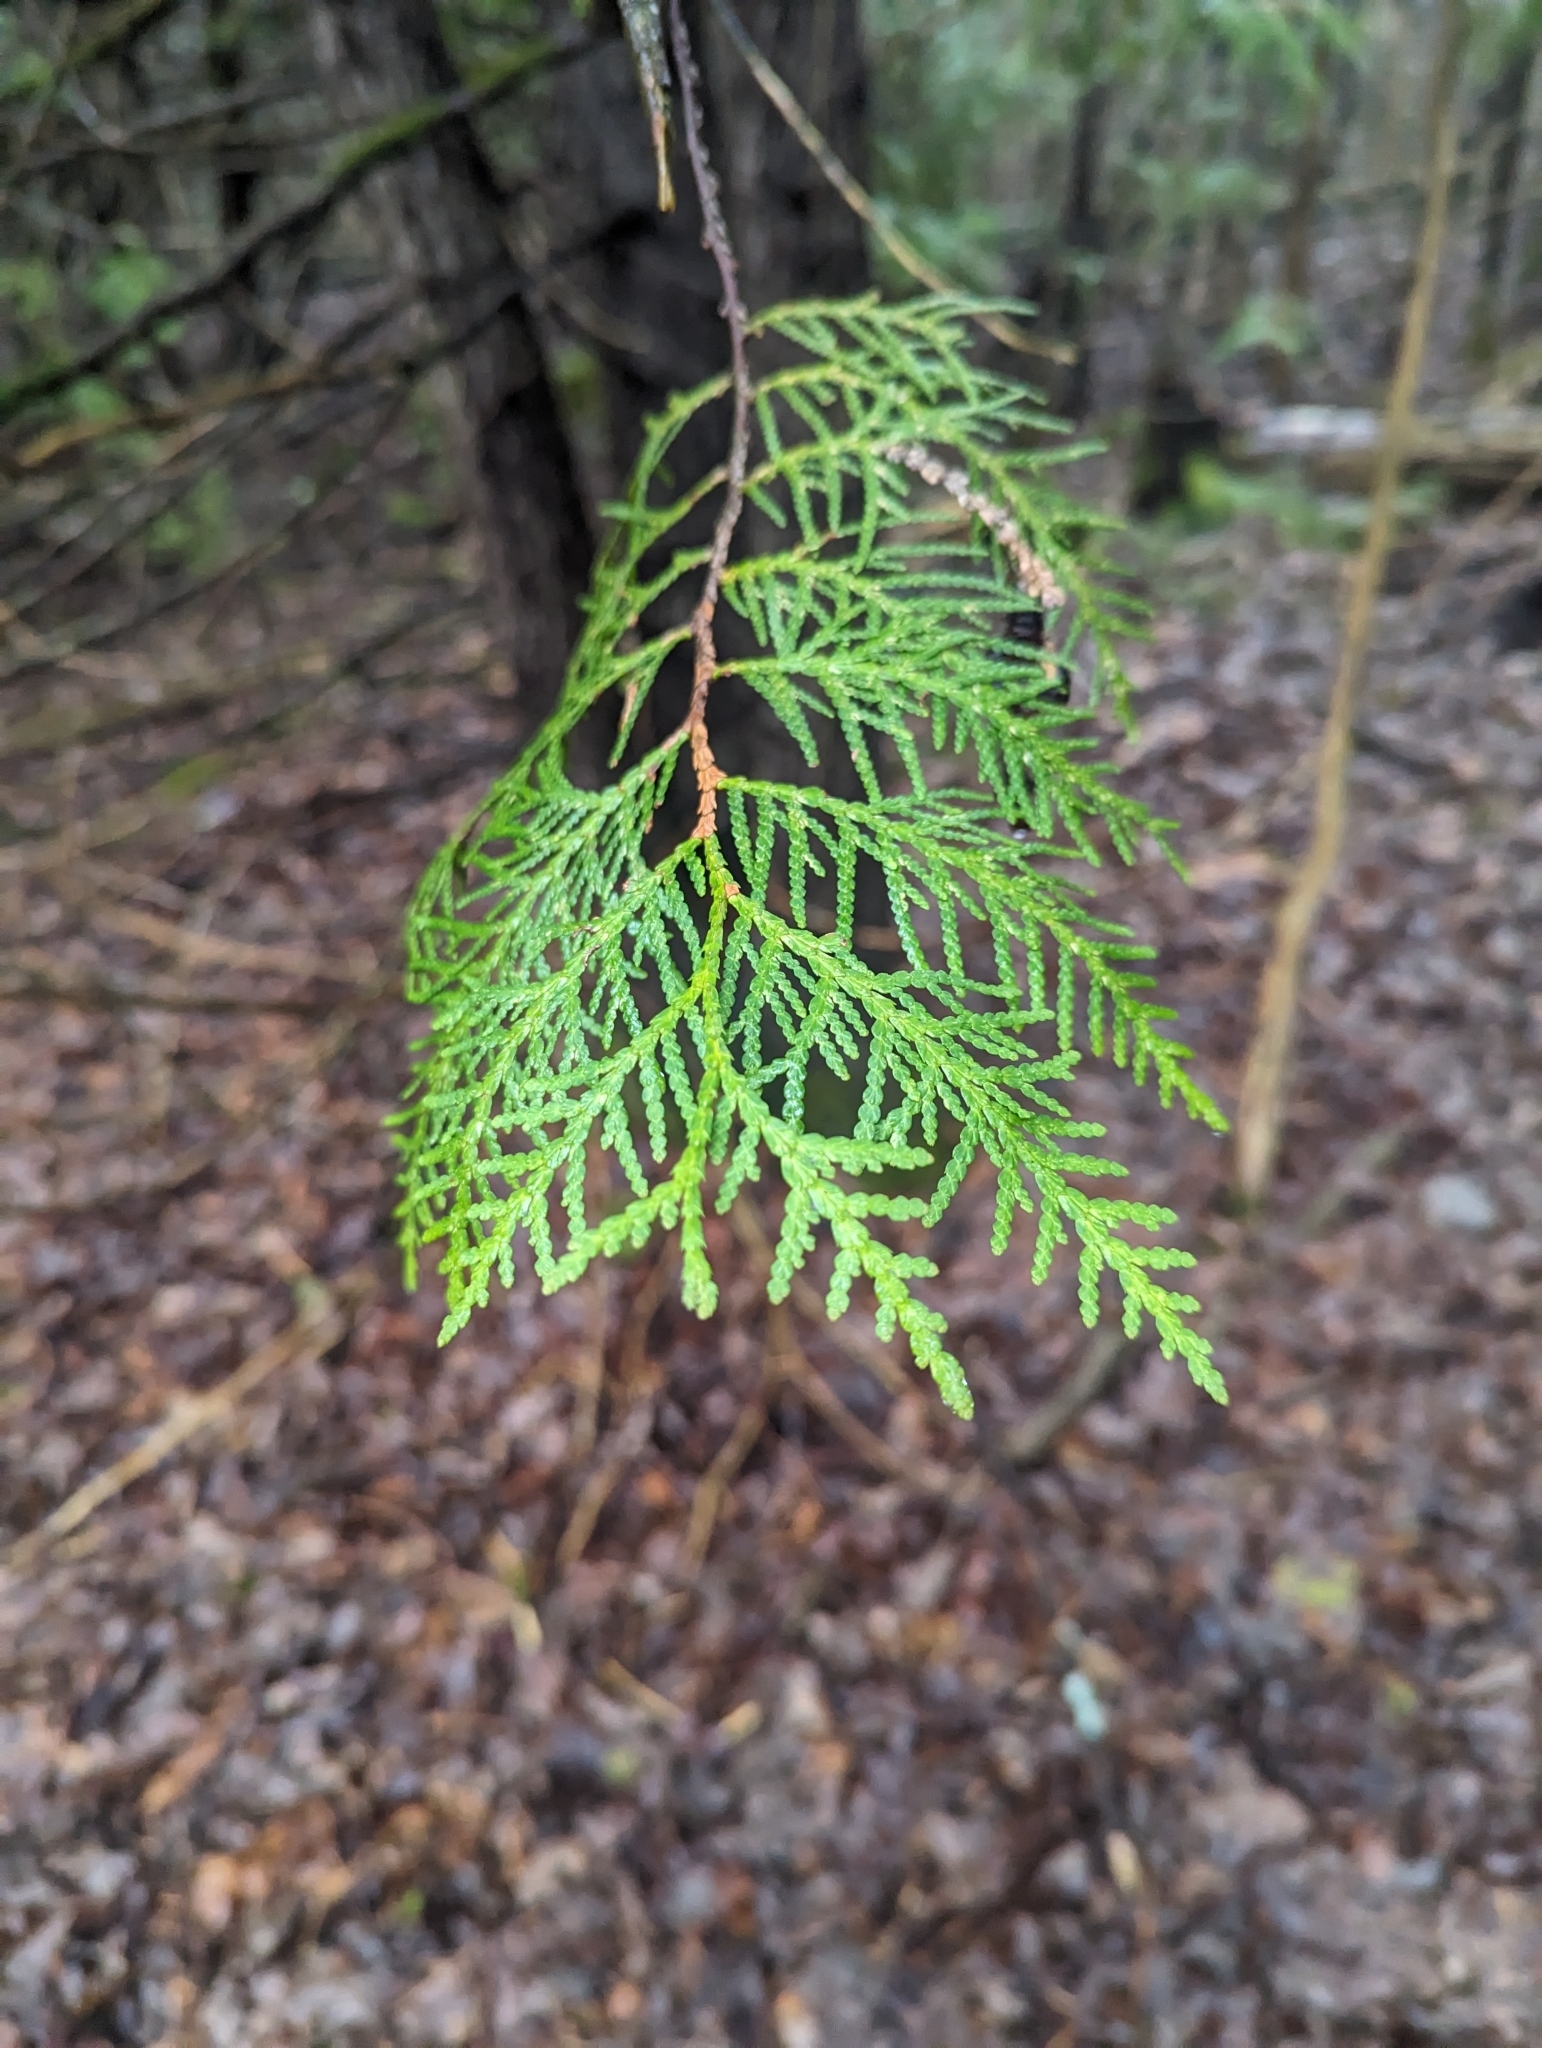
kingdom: Plantae
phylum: Tracheophyta
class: Pinopsida
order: Pinales
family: Cupressaceae
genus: Thuja
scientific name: Thuja occidentalis
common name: Northern white-cedar
